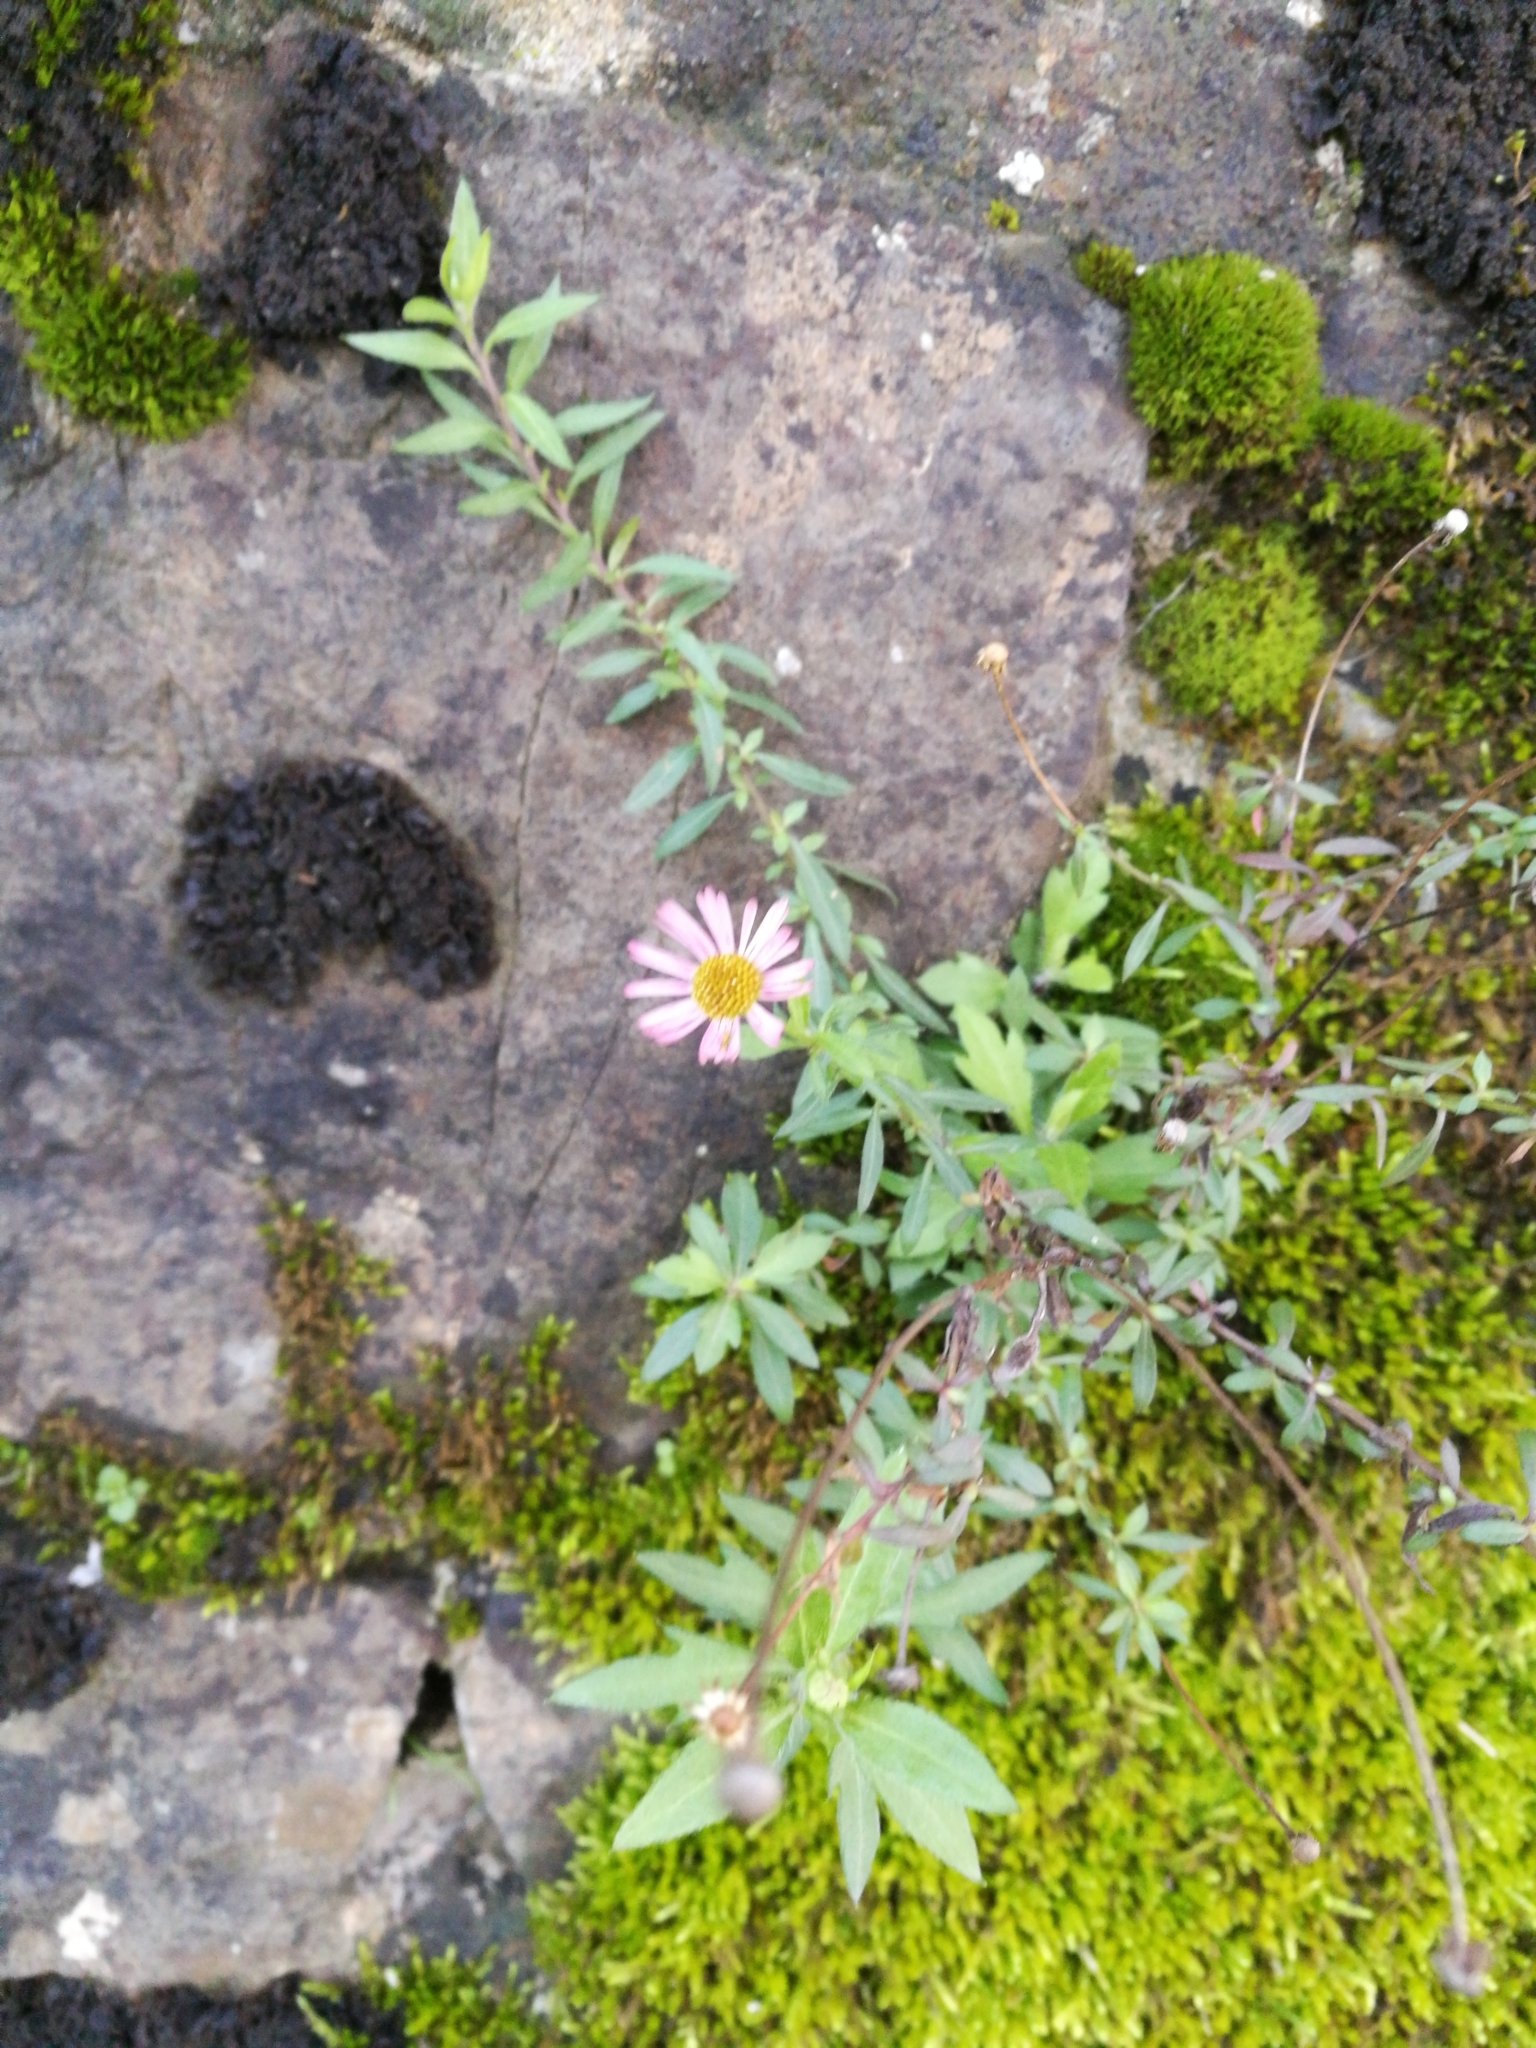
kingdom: Plantae
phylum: Tracheophyta
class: Magnoliopsida
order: Asterales
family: Asteraceae
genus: Erigeron
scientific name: Erigeron karvinskianus
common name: Mexican fleabane
